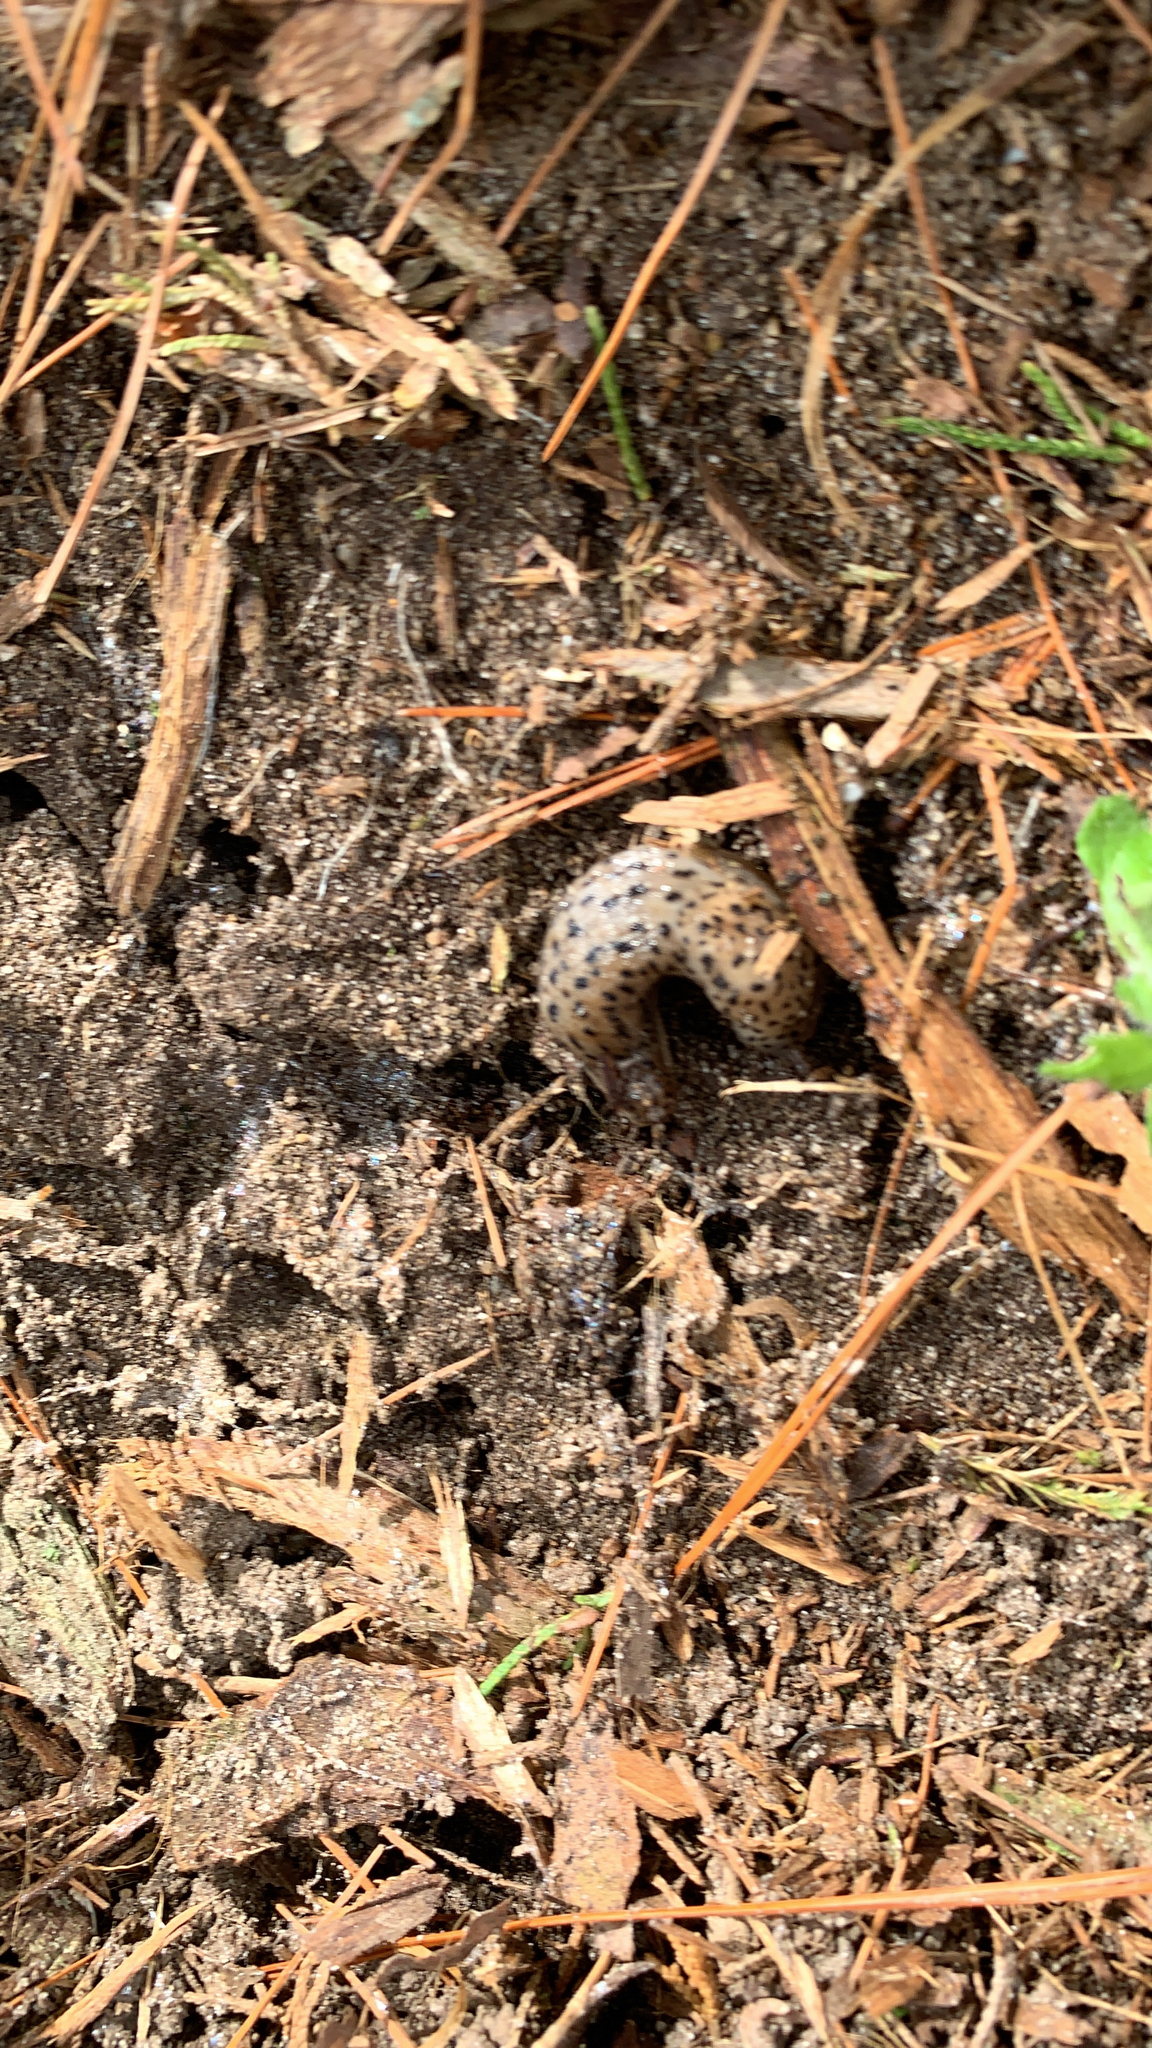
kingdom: Animalia
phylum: Mollusca
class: Gastropoda
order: Stylommatophora
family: Limacidae
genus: Limax
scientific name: Limax maximus
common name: Great grey slug
